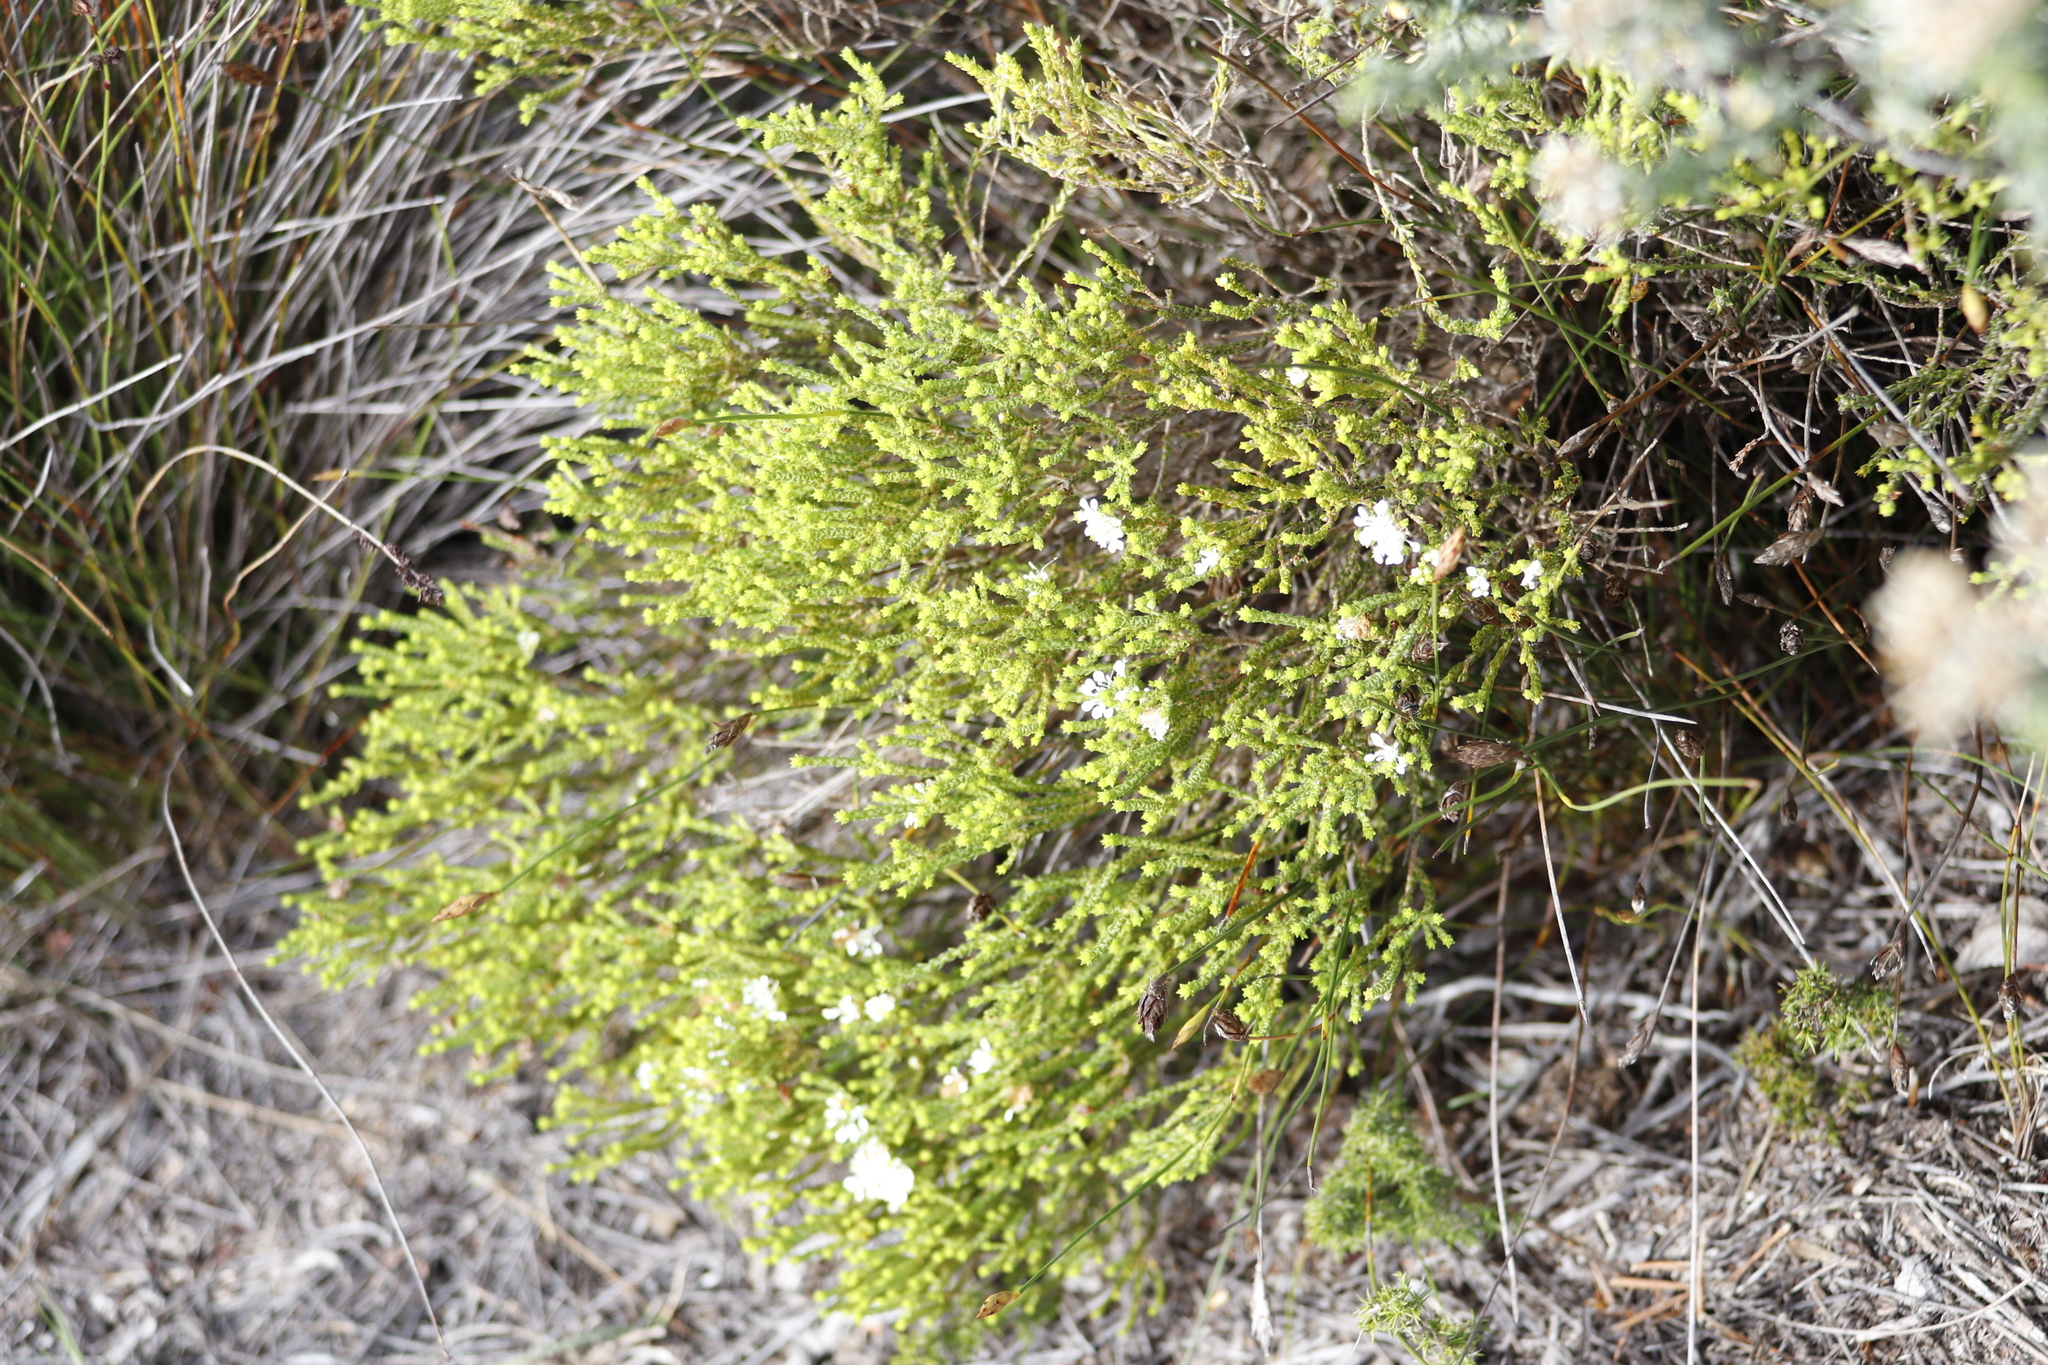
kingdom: Plantae
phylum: Tracheophyta
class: Magnoliopsida
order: Sapindales
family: Rutaceae
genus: Agathosma
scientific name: Agathosma imbricata
